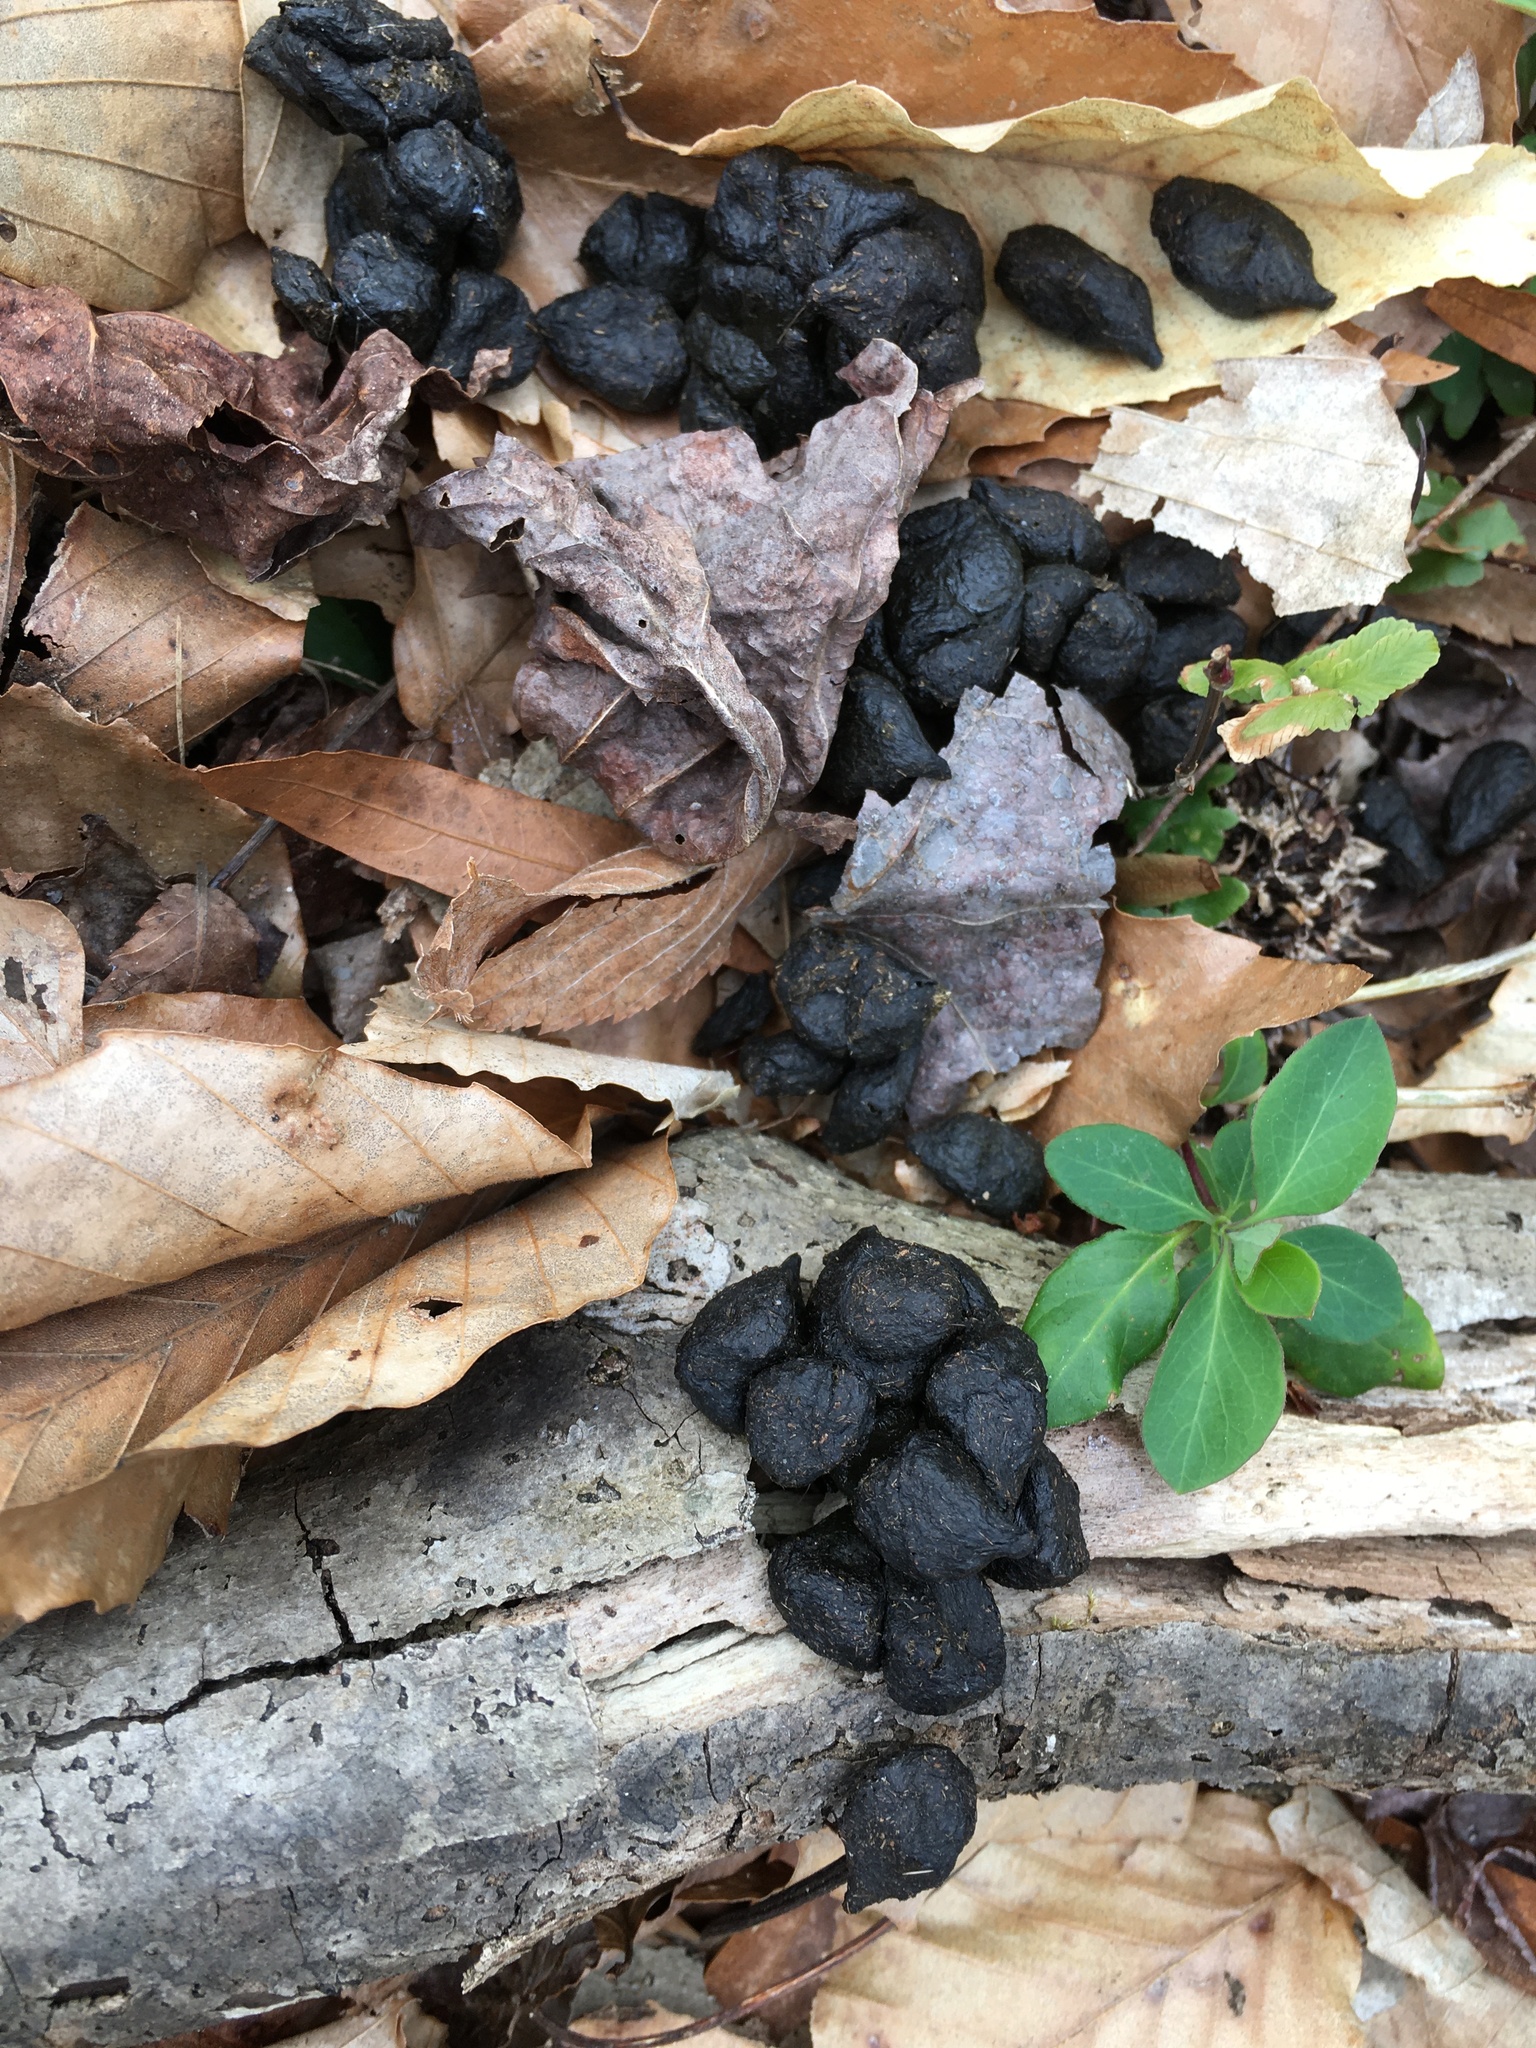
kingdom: Animalia
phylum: Chordata
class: Mammalia
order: Artiodactyla
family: Cervidae
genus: Odocoileus
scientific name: Odocoileus virginianus
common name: White-tailed deer
